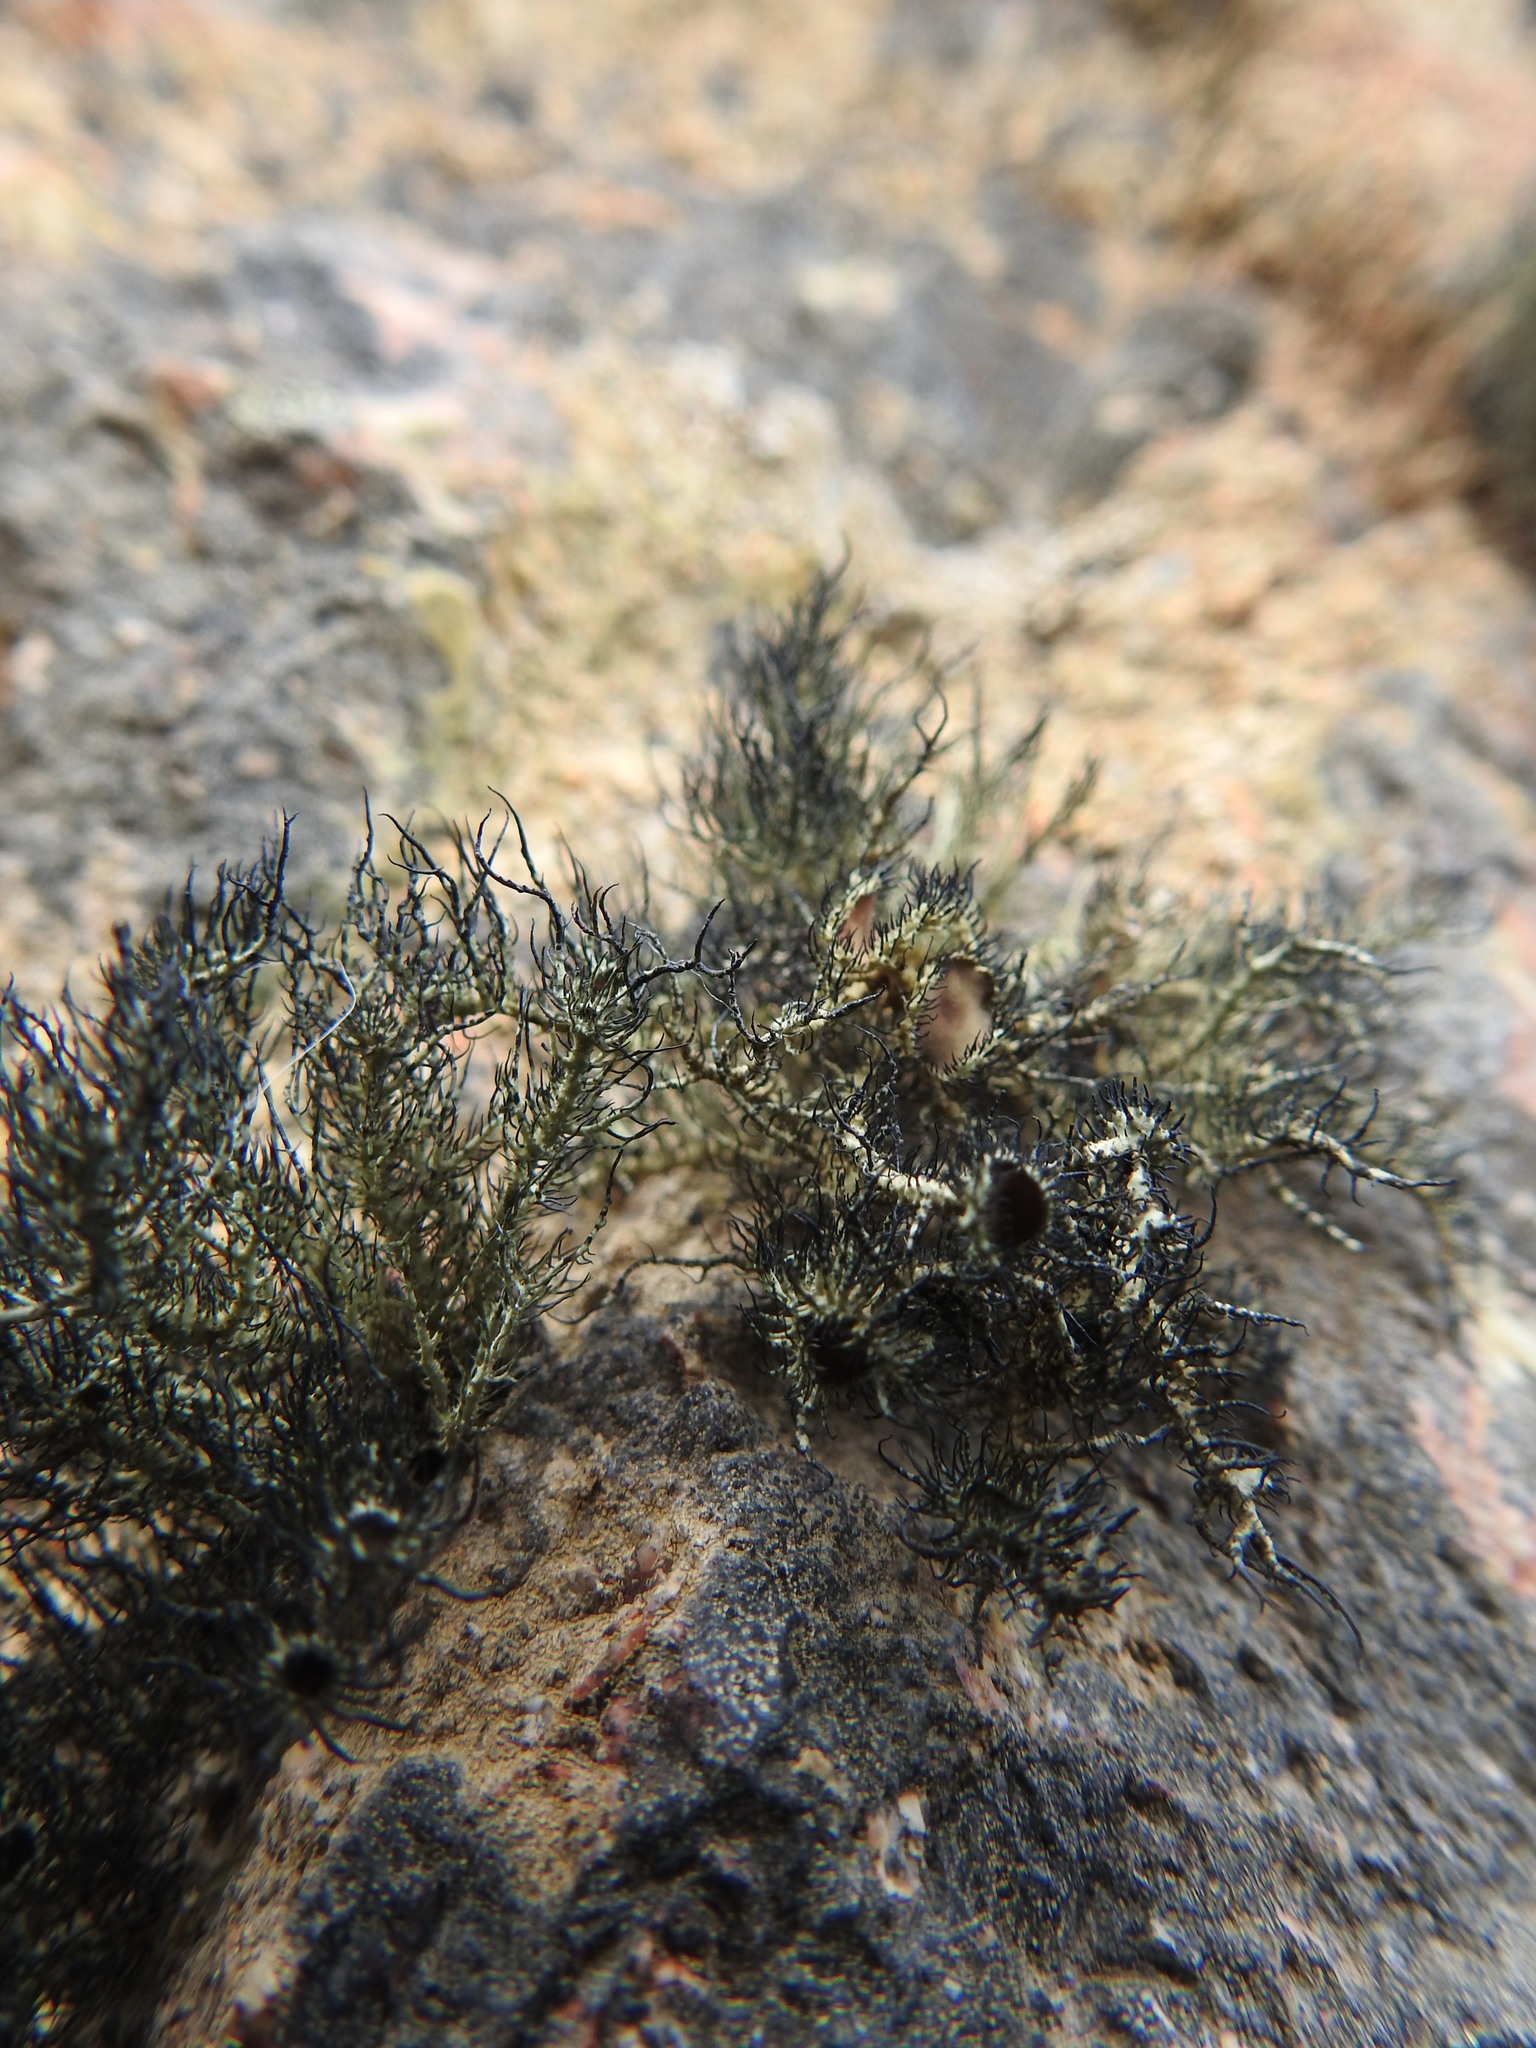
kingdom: Fungi
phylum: Ascomycota
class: Lecanoromycetes
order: Lecanorales
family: Parmeliaceae
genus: Usnea
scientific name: Usnea trachycarpa
